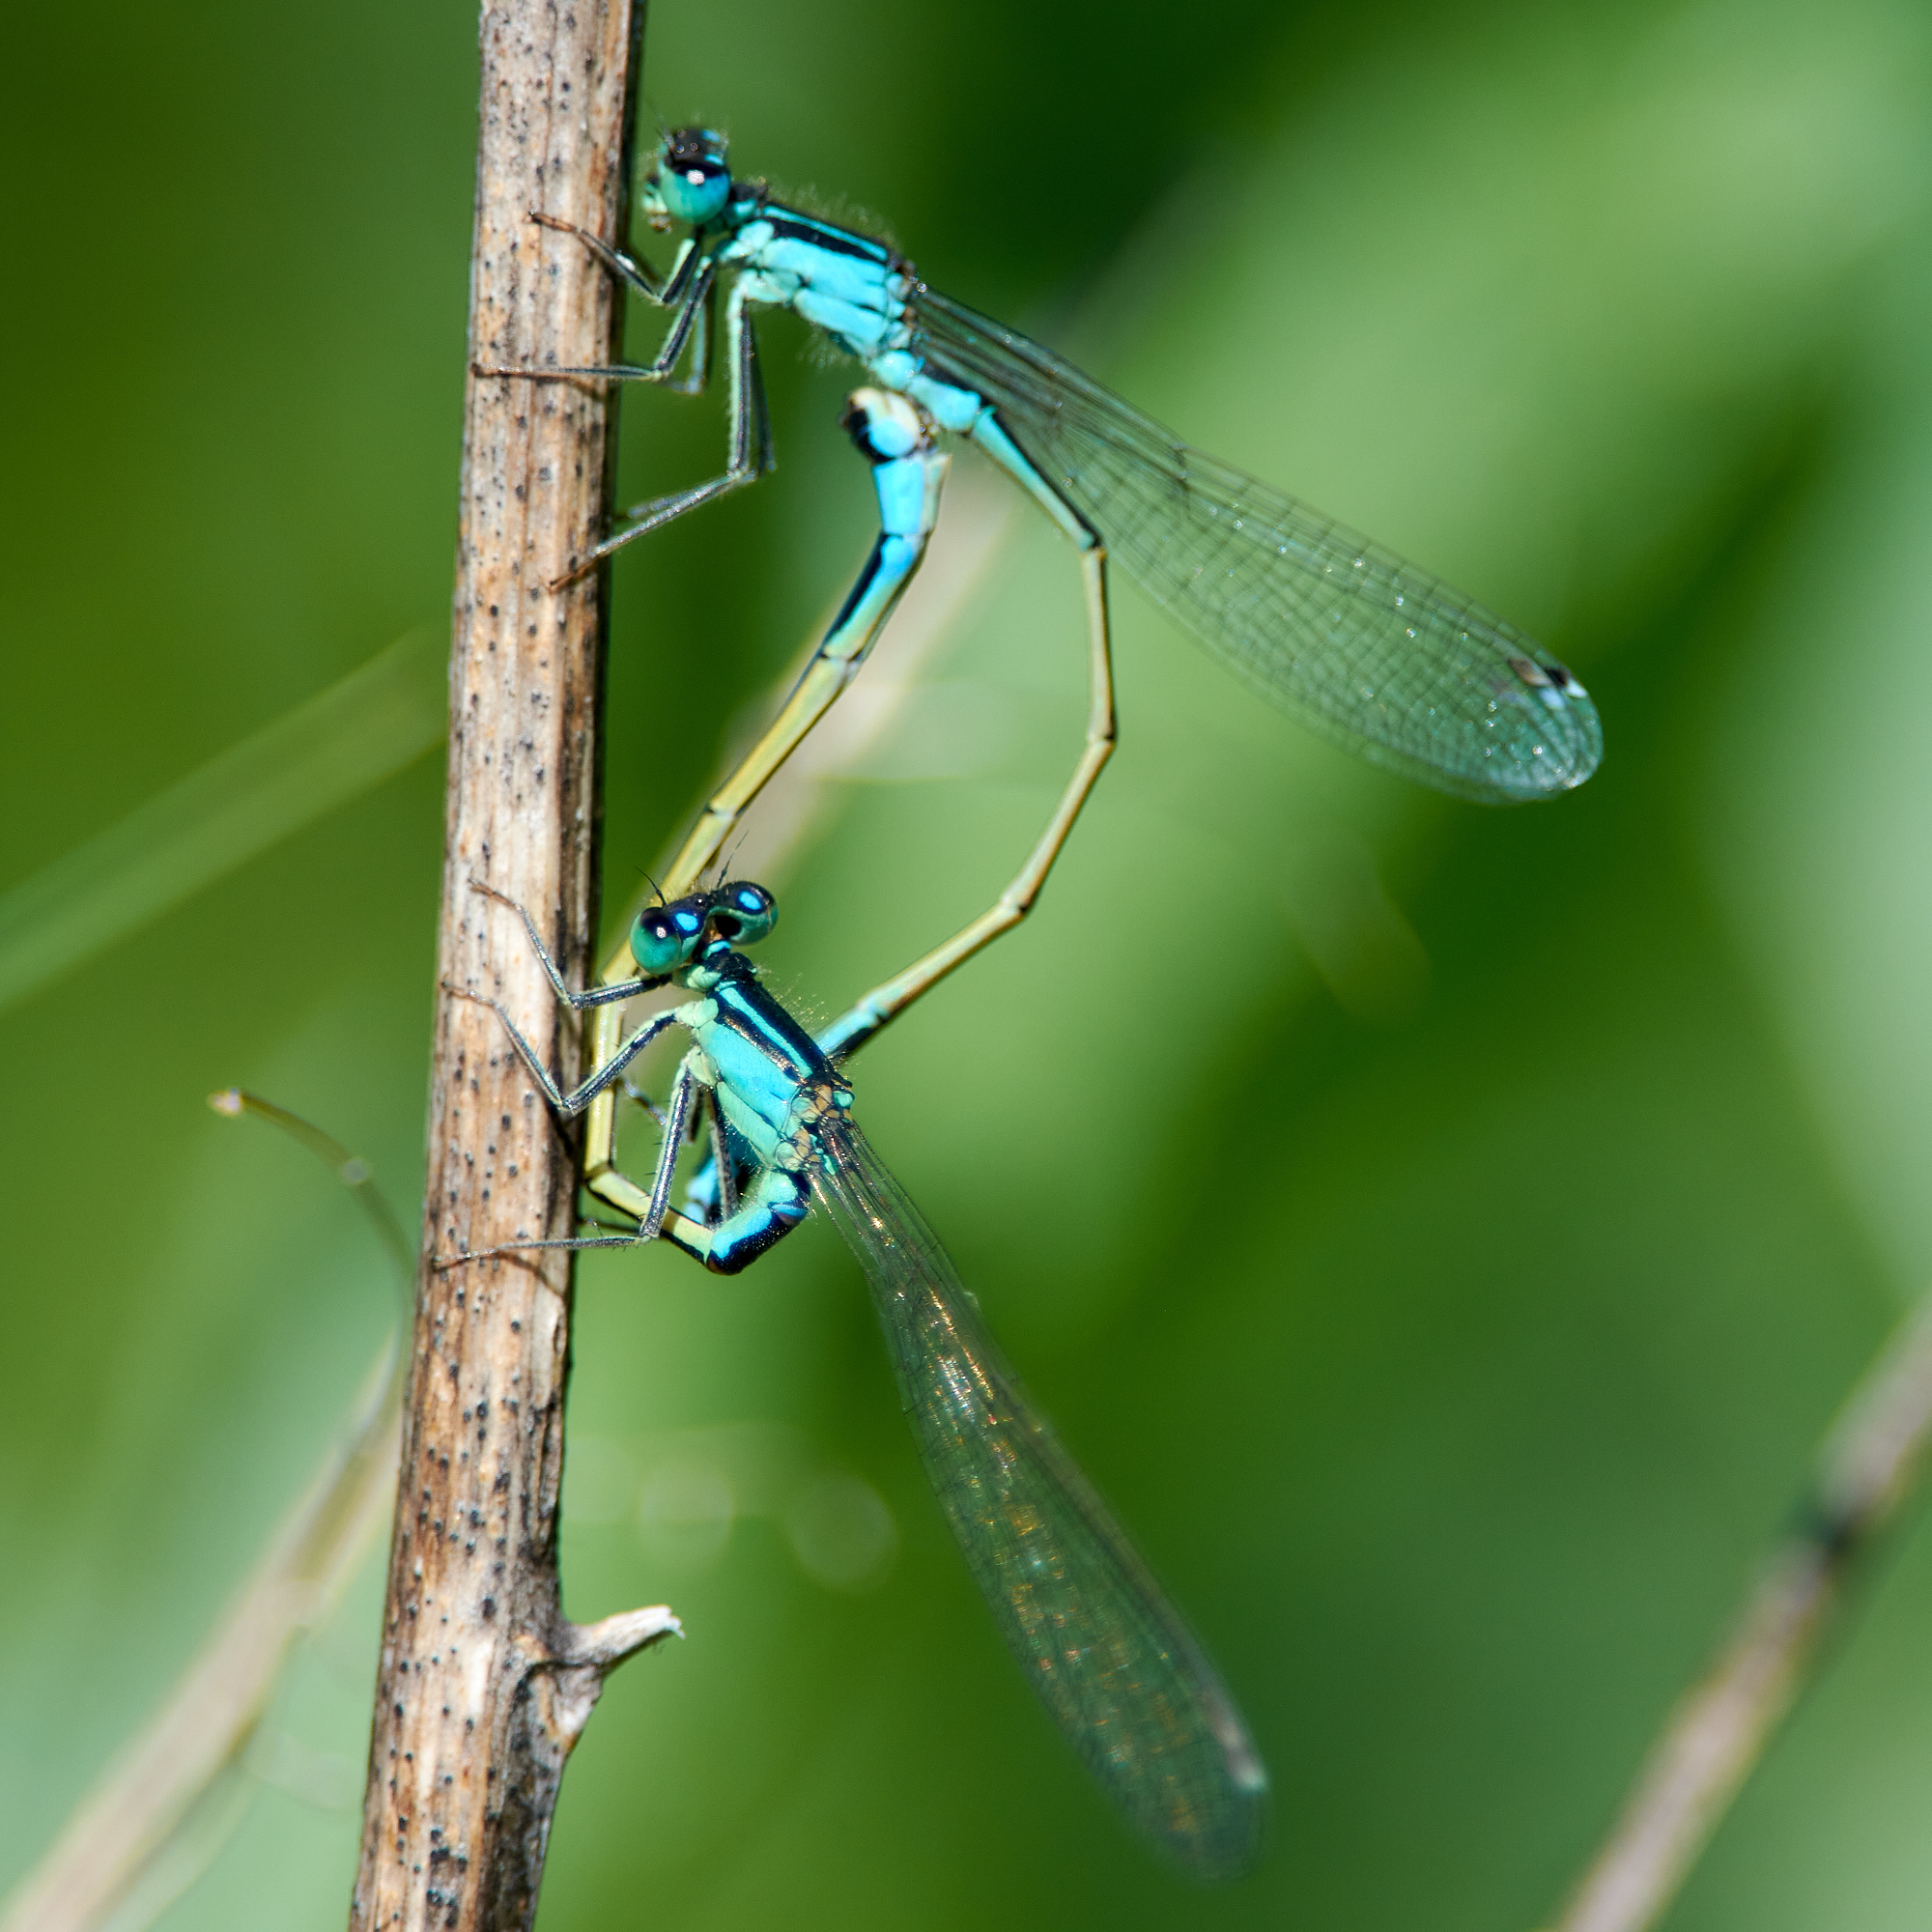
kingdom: Animalia
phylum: Arthropoda
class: Insecta
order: Odonata
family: Coenagrionidae
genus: Ischnura
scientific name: Ischnura elegans
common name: Blue-tailed damselfly
